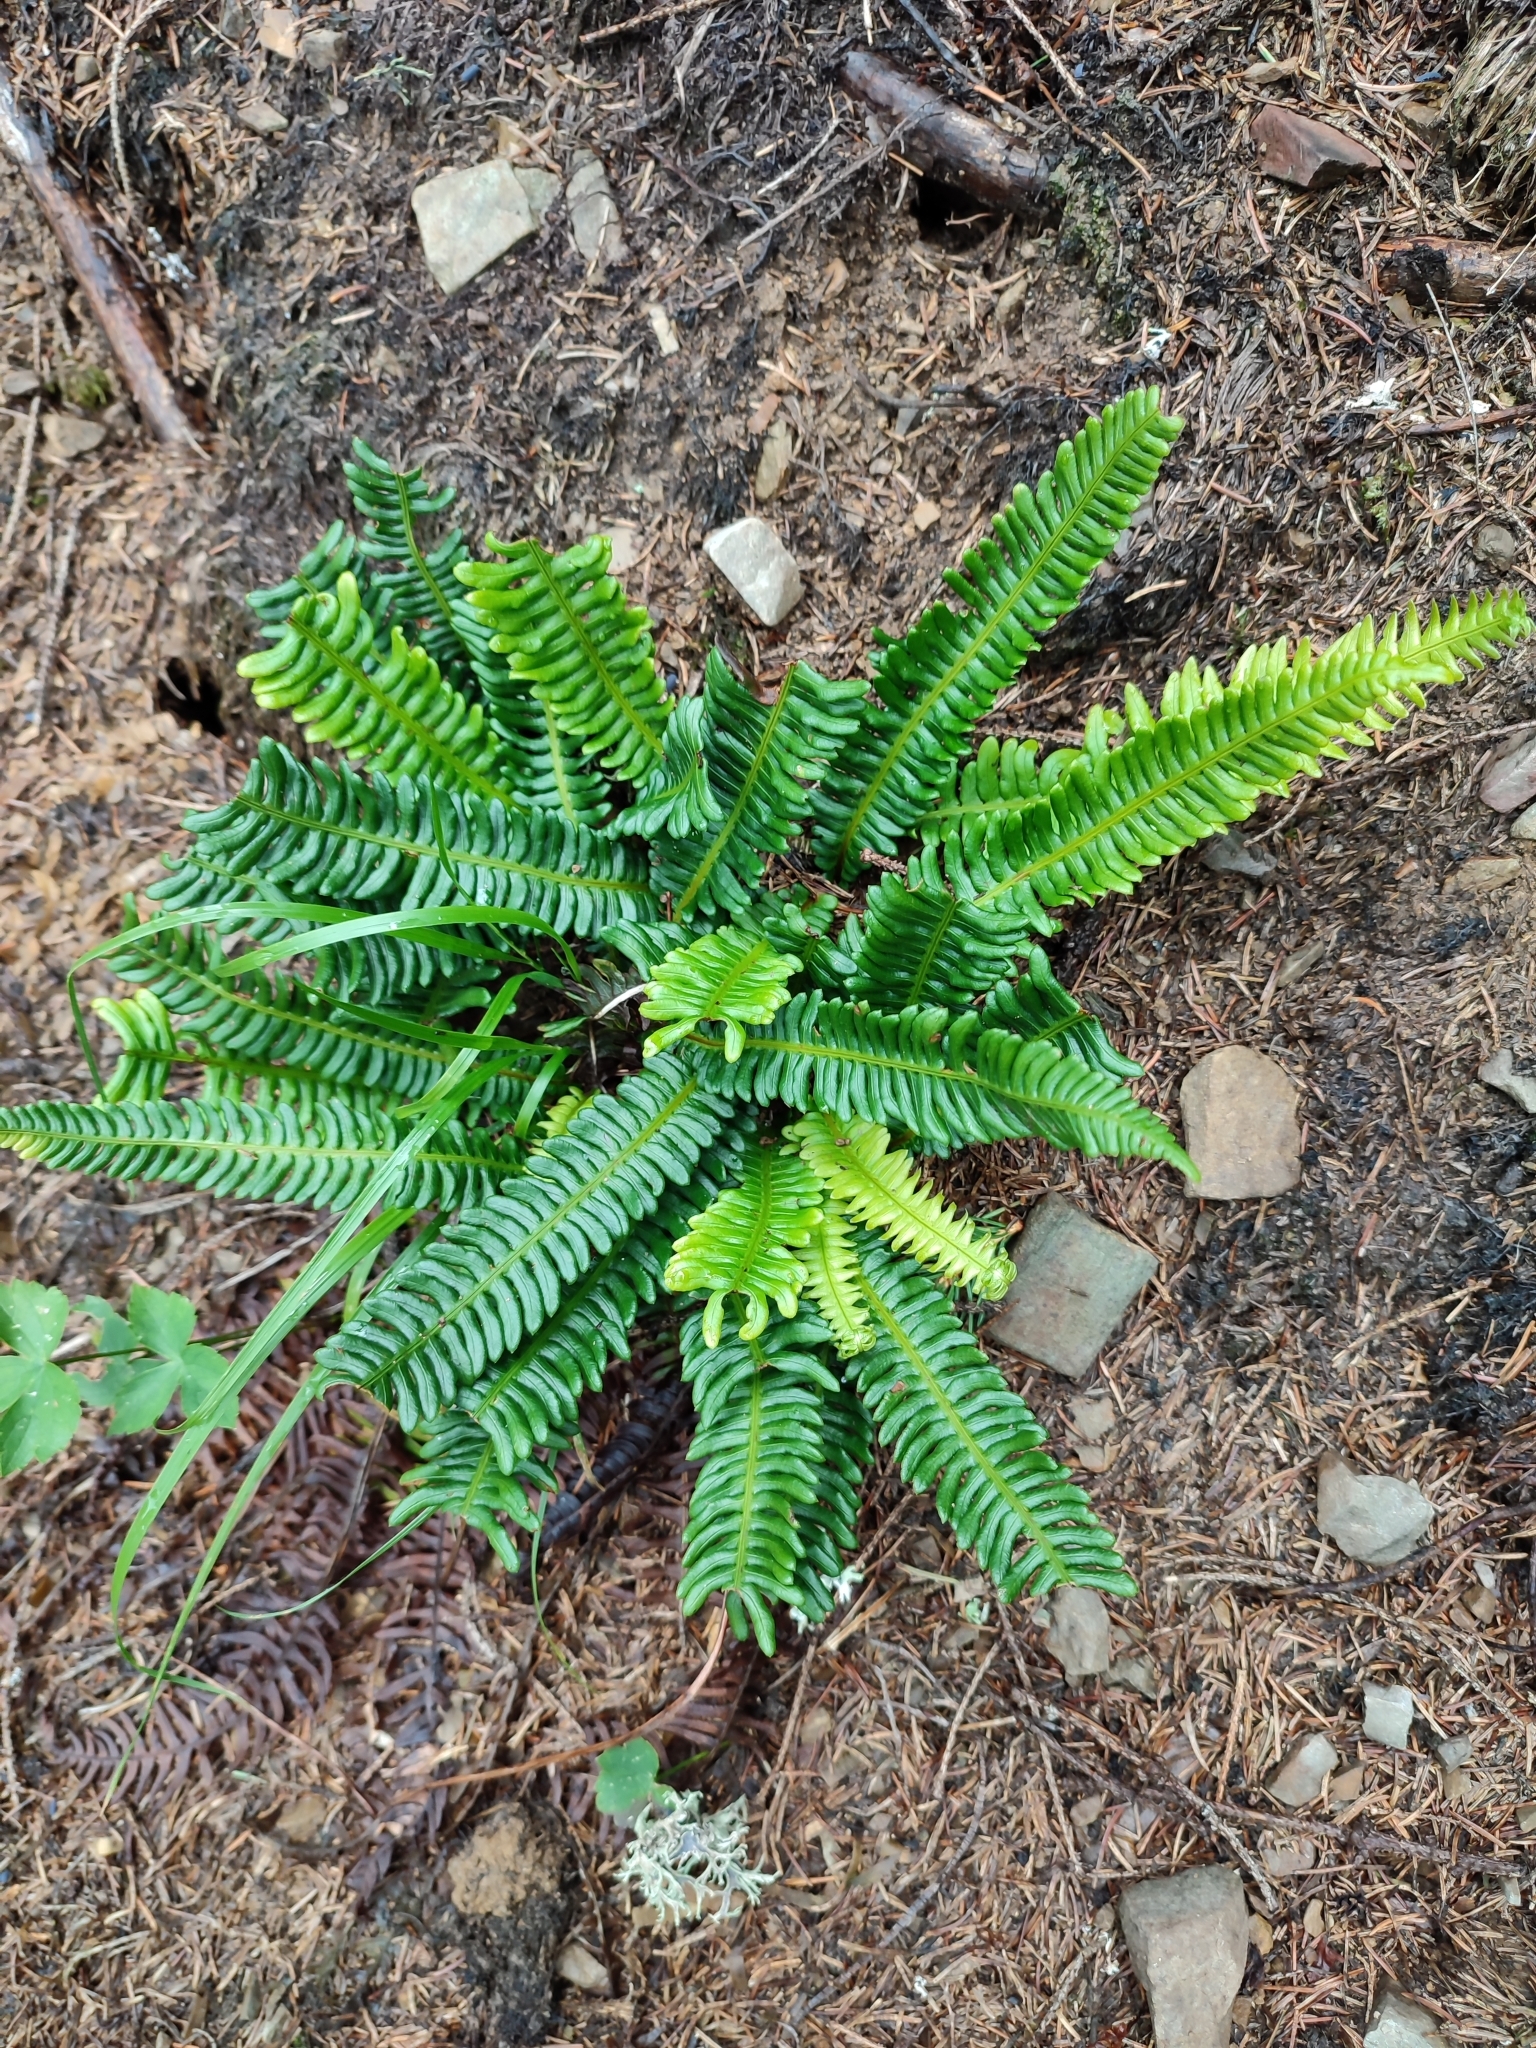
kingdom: Plantae
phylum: Tracheophyta
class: Polypodiopsida
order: Polypodiales
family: Blechnaceae
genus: Struthiopteris
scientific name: Struthiopteris spicant
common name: Deer fern
